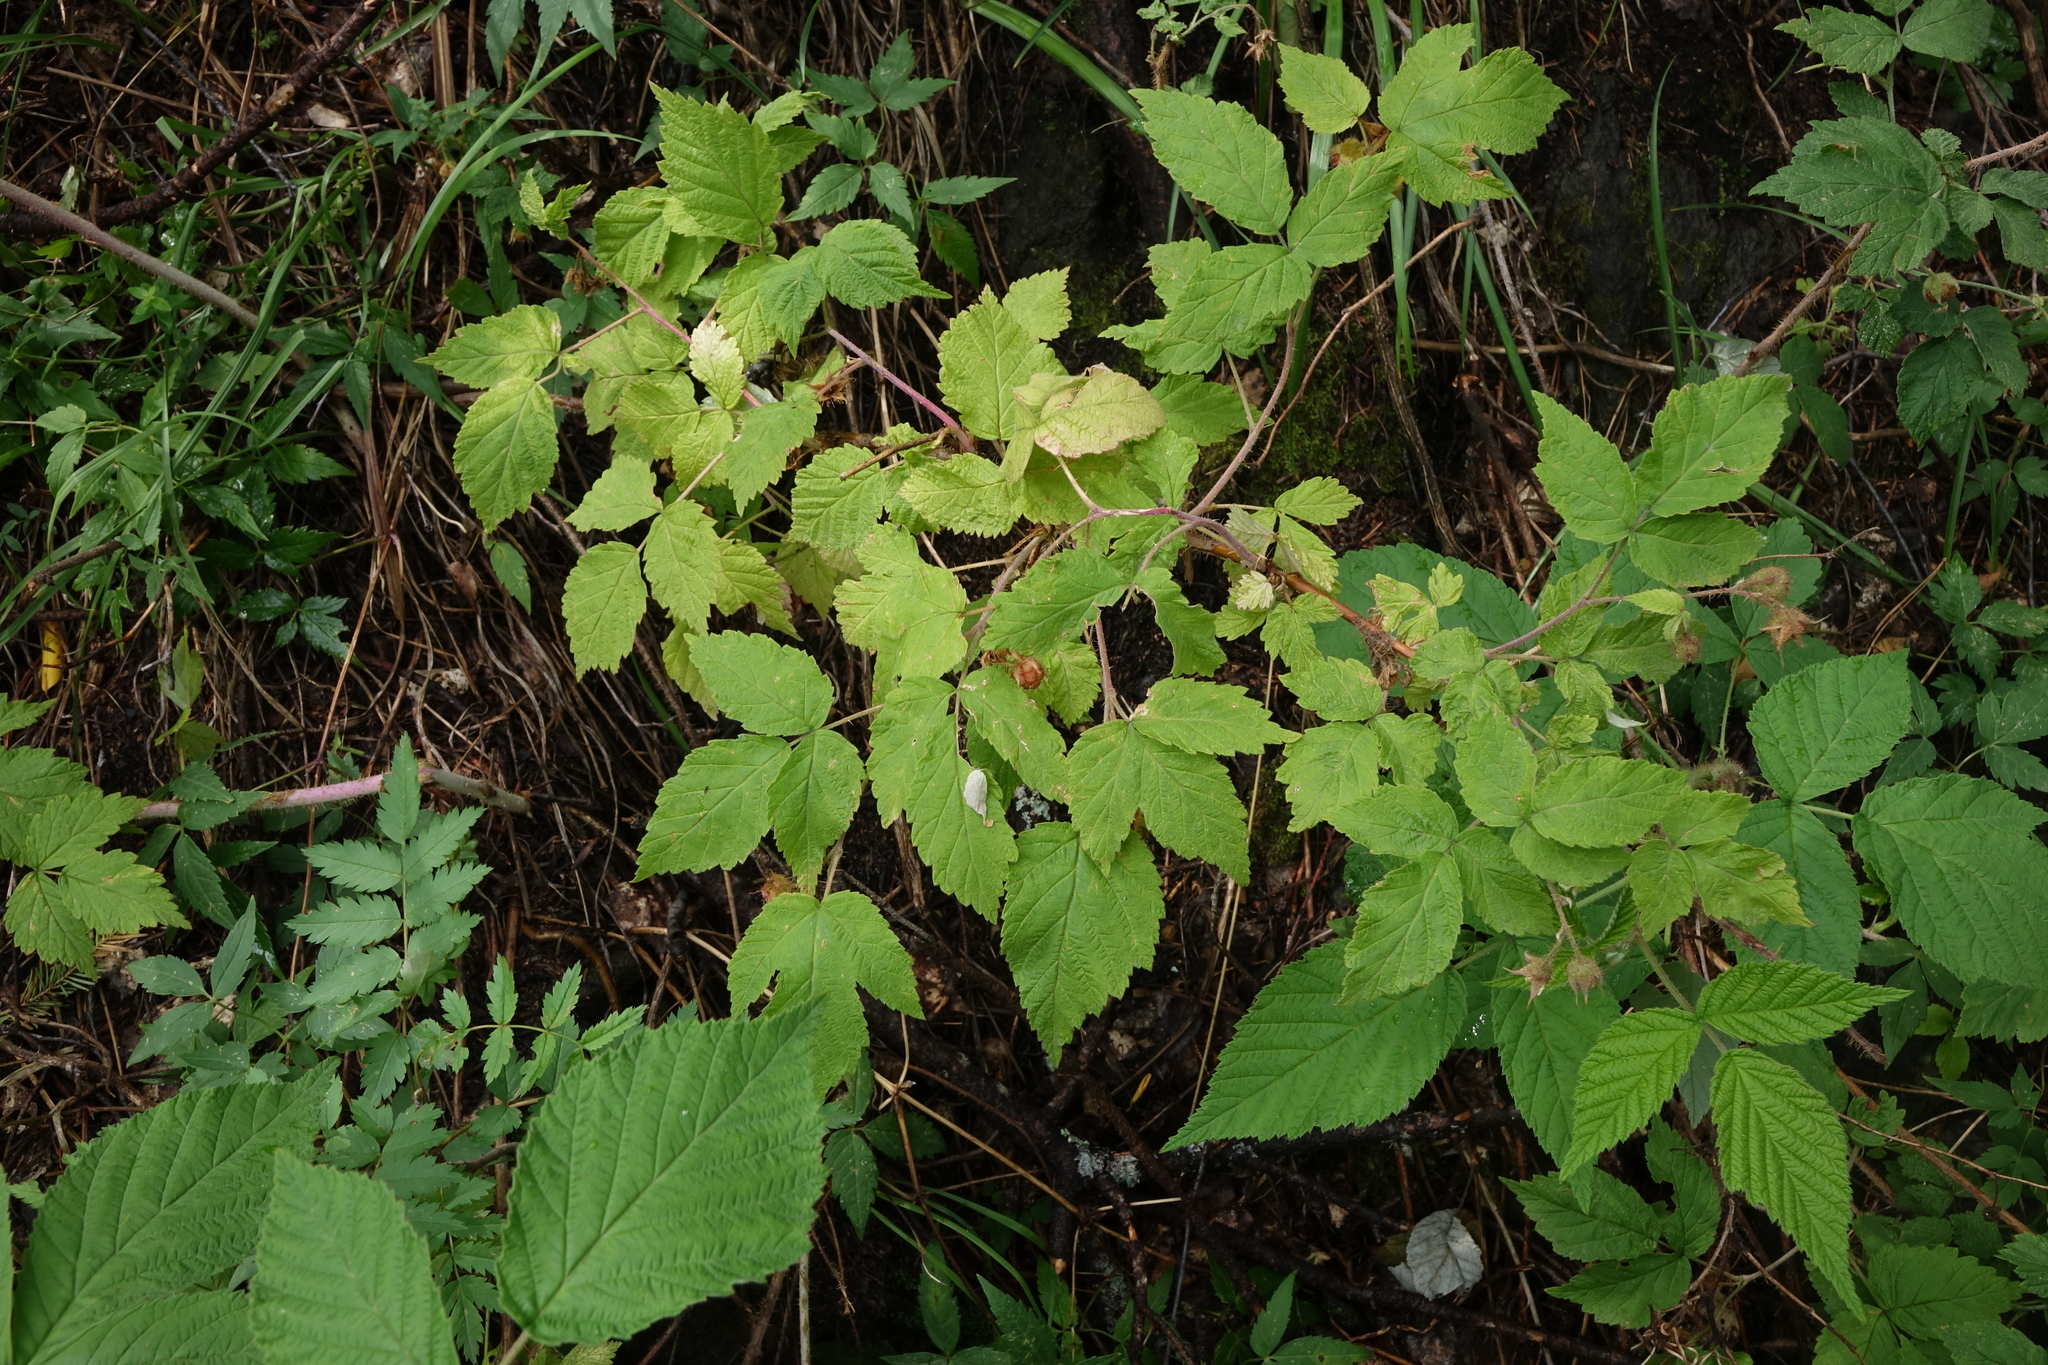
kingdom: Plantae
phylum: Tracheophyta
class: Magnoliopsida
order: Rosales
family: Rosaceae
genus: Rubus
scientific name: Rubus idaeus
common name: Raspberry
